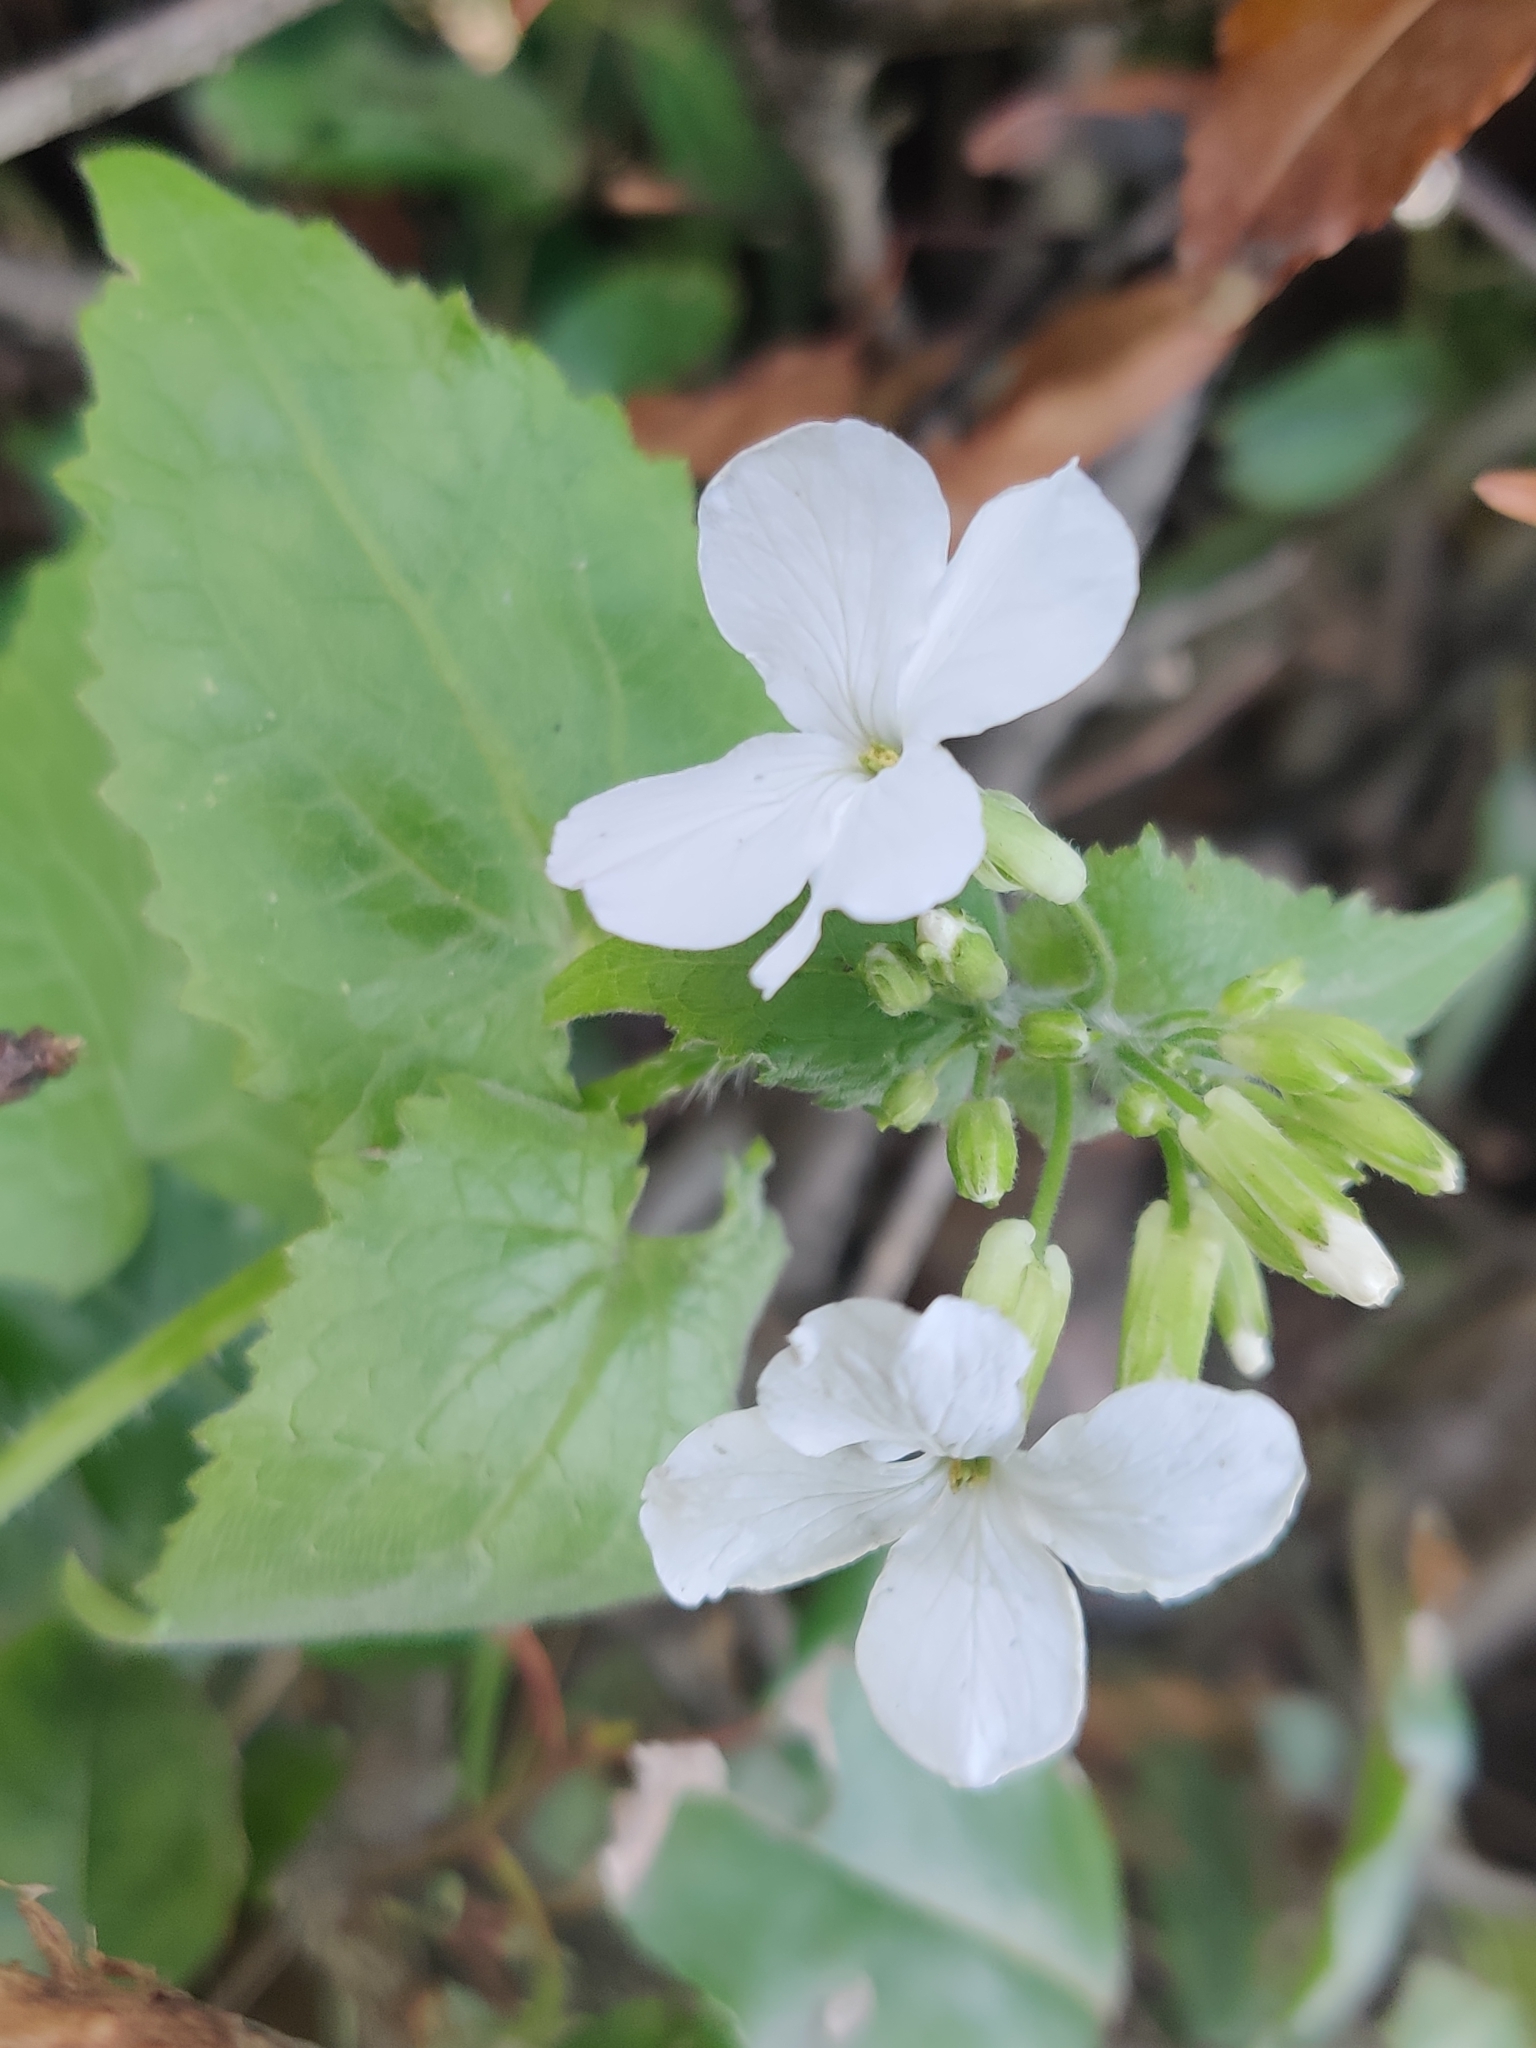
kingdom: Plantae
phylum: Tracheophyta
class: Magnoliopsida
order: Brassicales
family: Brassicaceae
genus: Lunaria
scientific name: Lunaria annua
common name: Honesty
